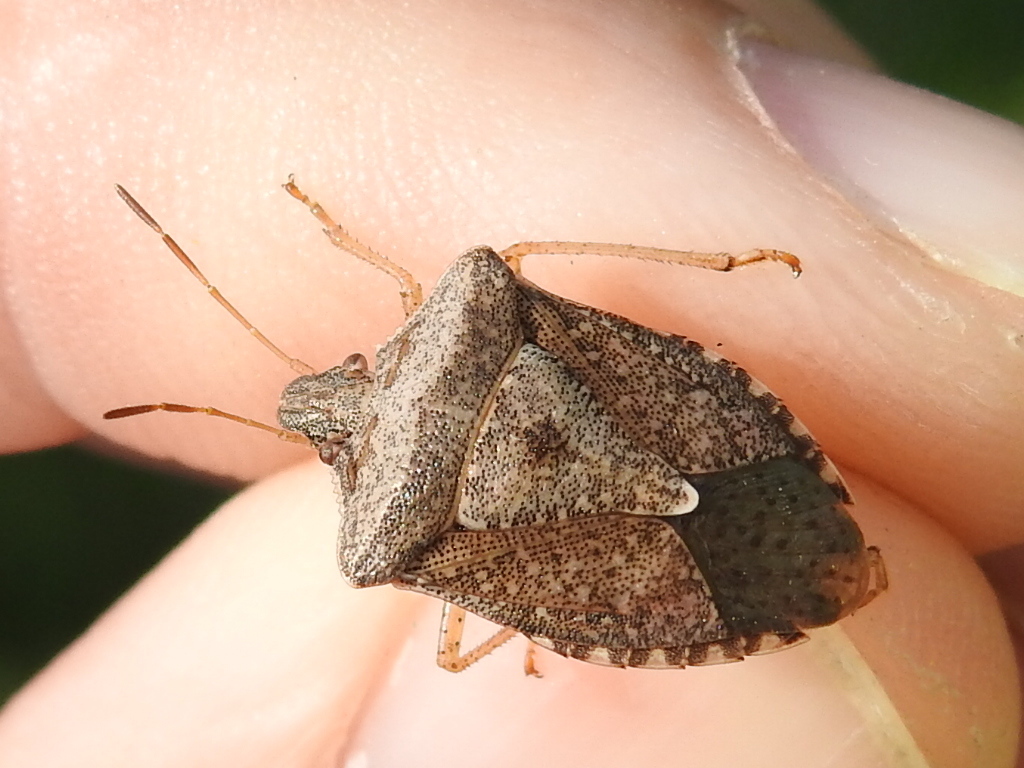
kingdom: Animalia
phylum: Arthropoda
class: Insecta
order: Hemiptera
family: Pentatomidae
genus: Euschistus
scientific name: Euschistus servus
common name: Brown stink bug
